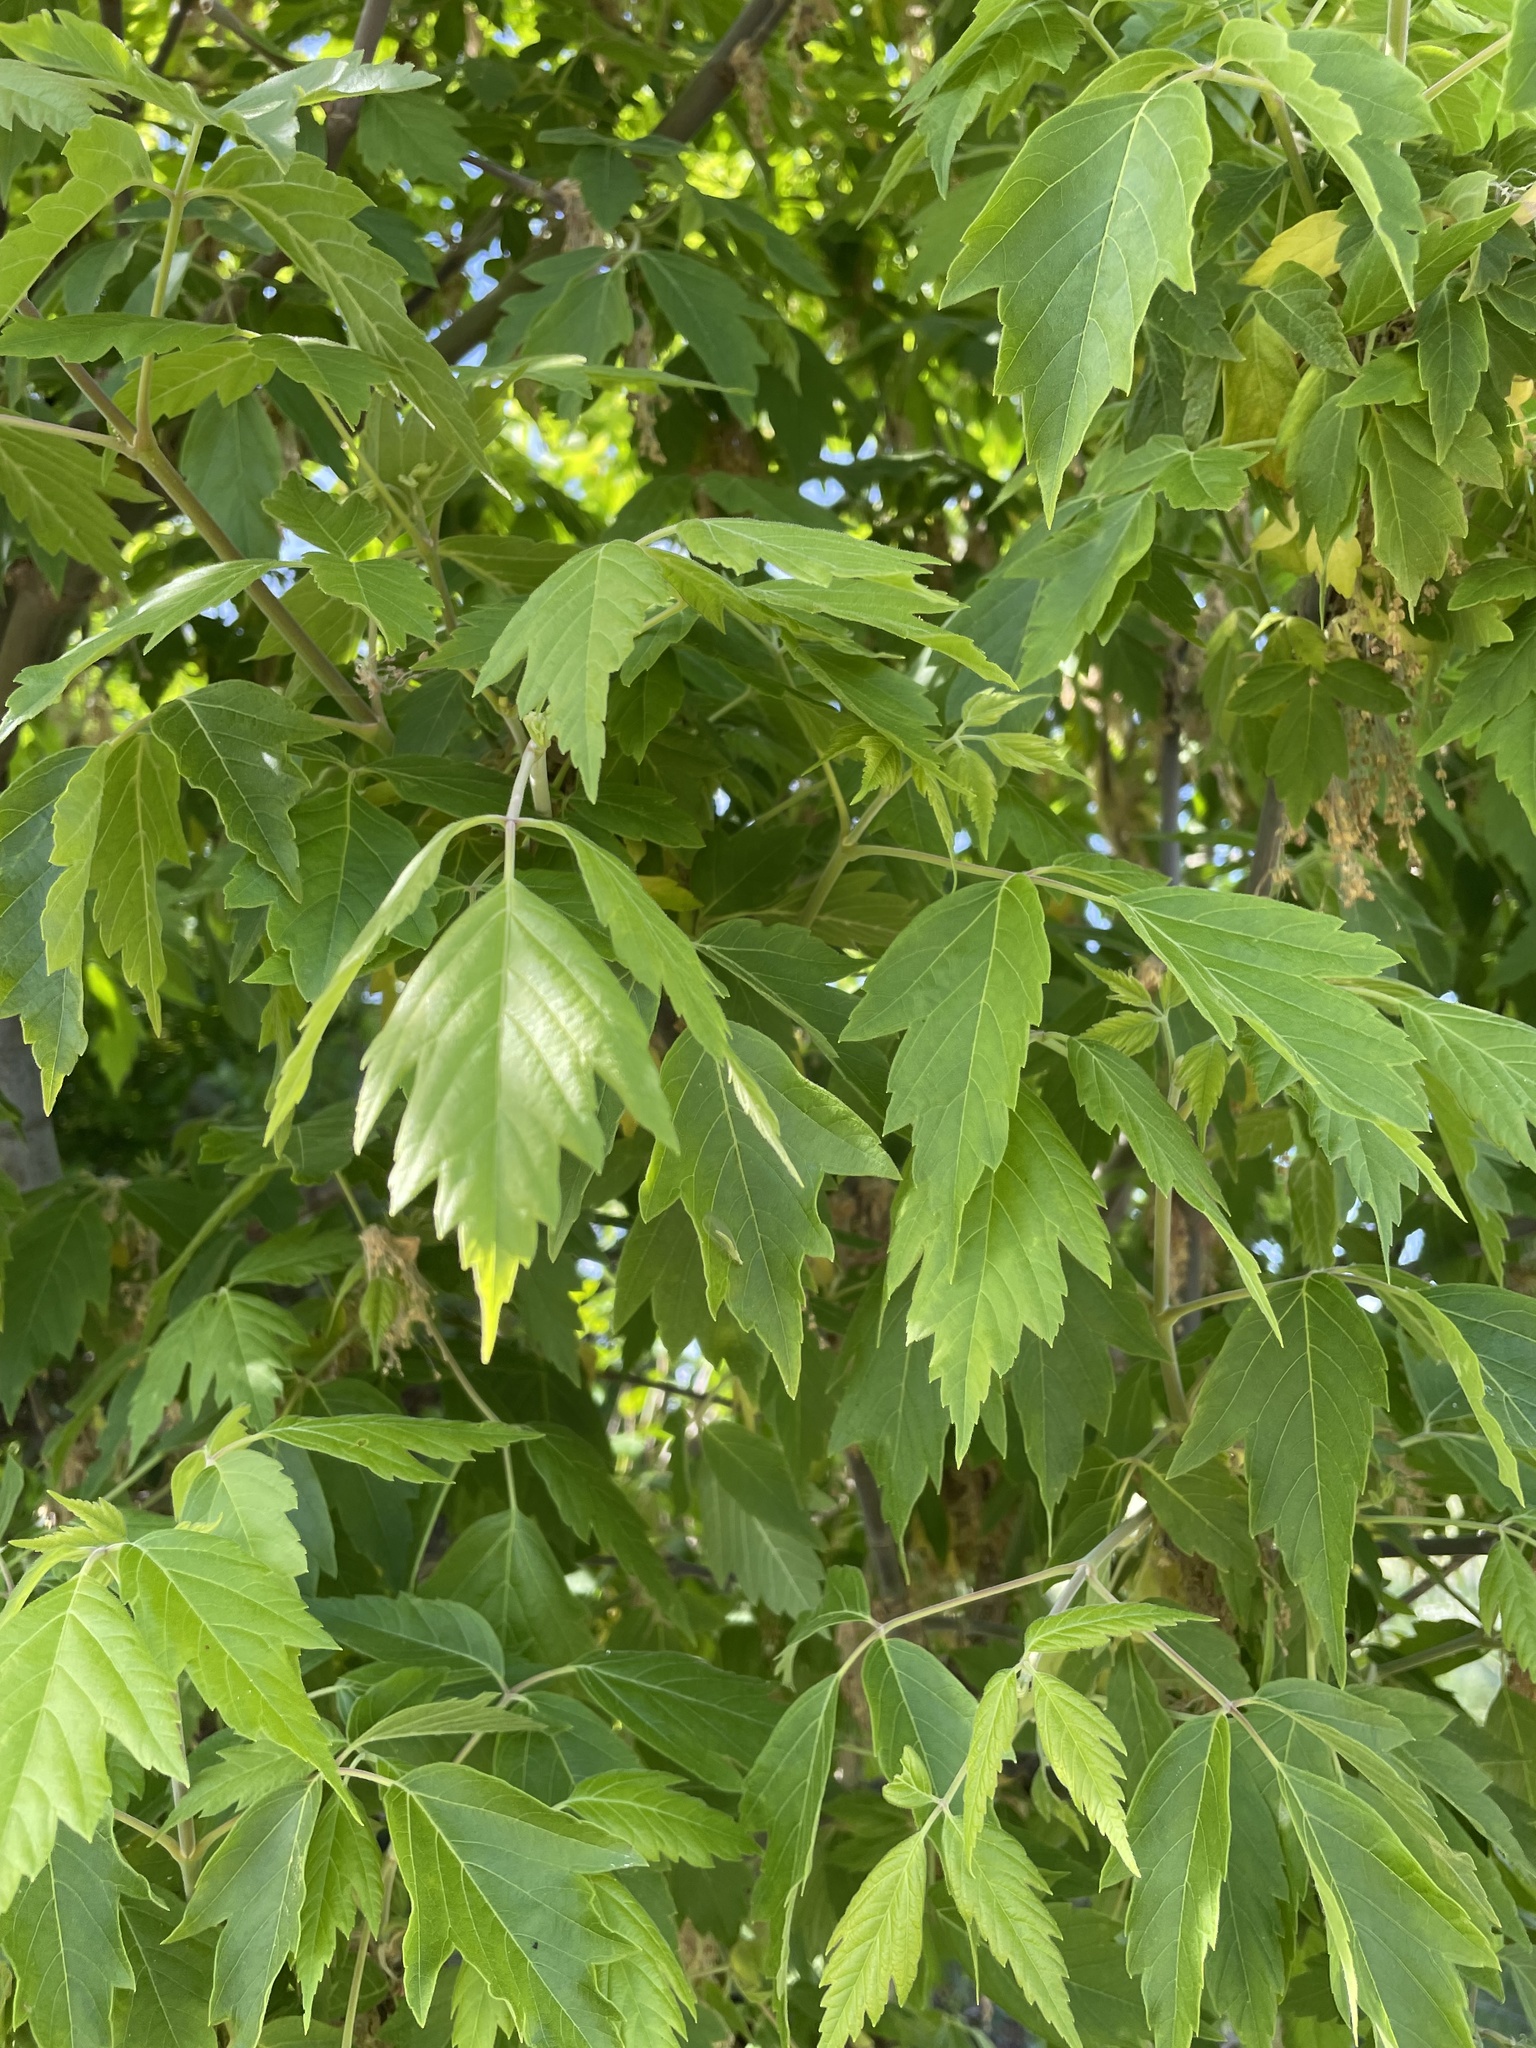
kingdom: Plantae
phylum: Tracheophyta
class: Magnoliopsida
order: Sapindales
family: Sapindaceae
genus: Acer
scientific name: Acer negundo
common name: Ashleaf maple
